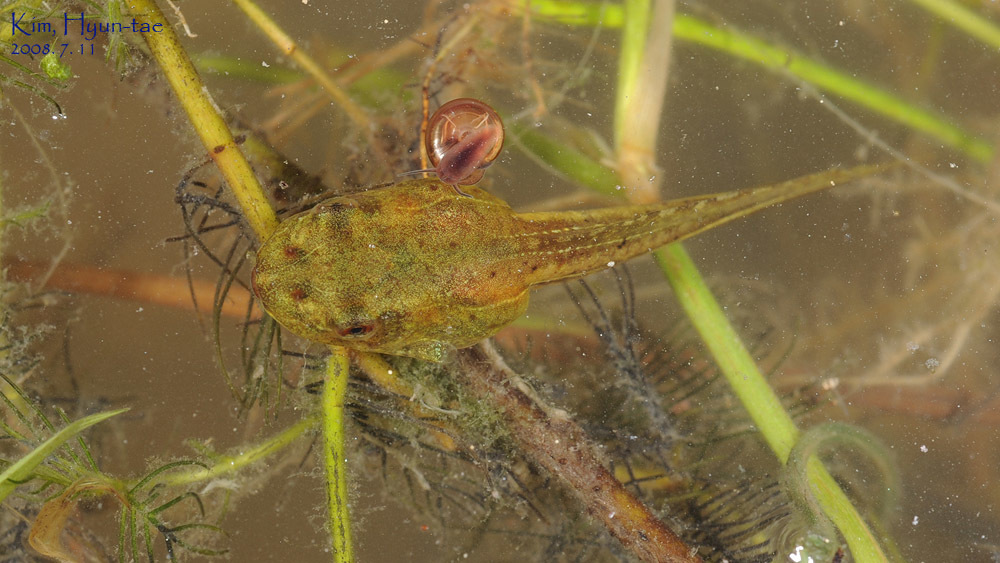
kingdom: Animalia
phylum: Chordata
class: Amphibia
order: Anura
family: Ranidae
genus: Pelophylax
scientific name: Pelophylax chosenicus
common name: Gold-spotted pond frog
